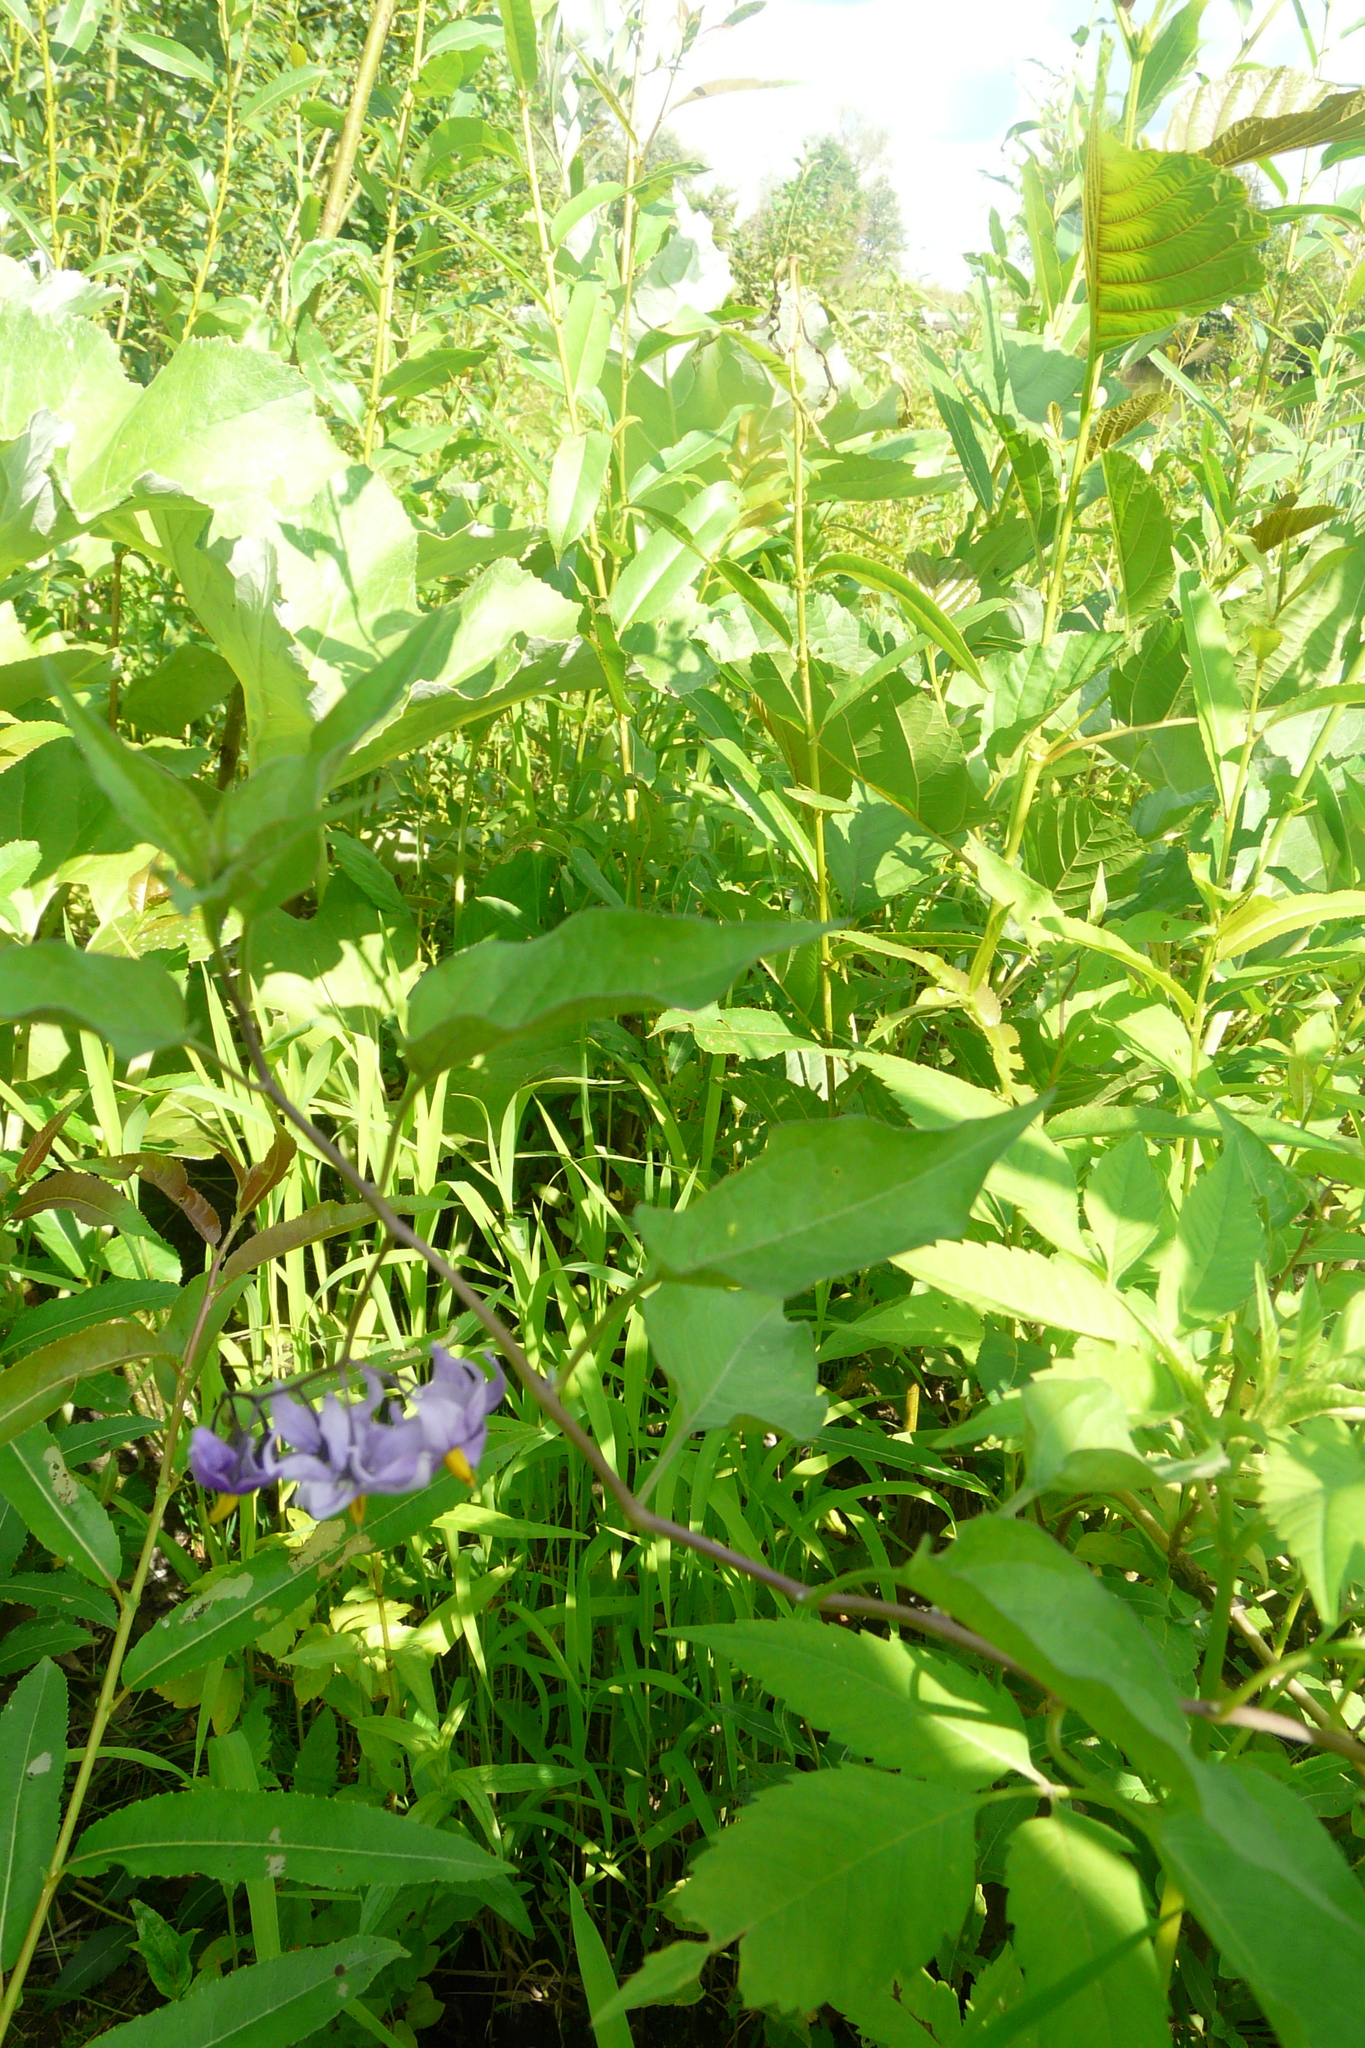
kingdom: Plantae
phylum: Tracheophyta
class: Magnoliopsida
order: Solanales
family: Solanaceae
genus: Solanum
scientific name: Solanum dulcamara
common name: Climbing nightshade
